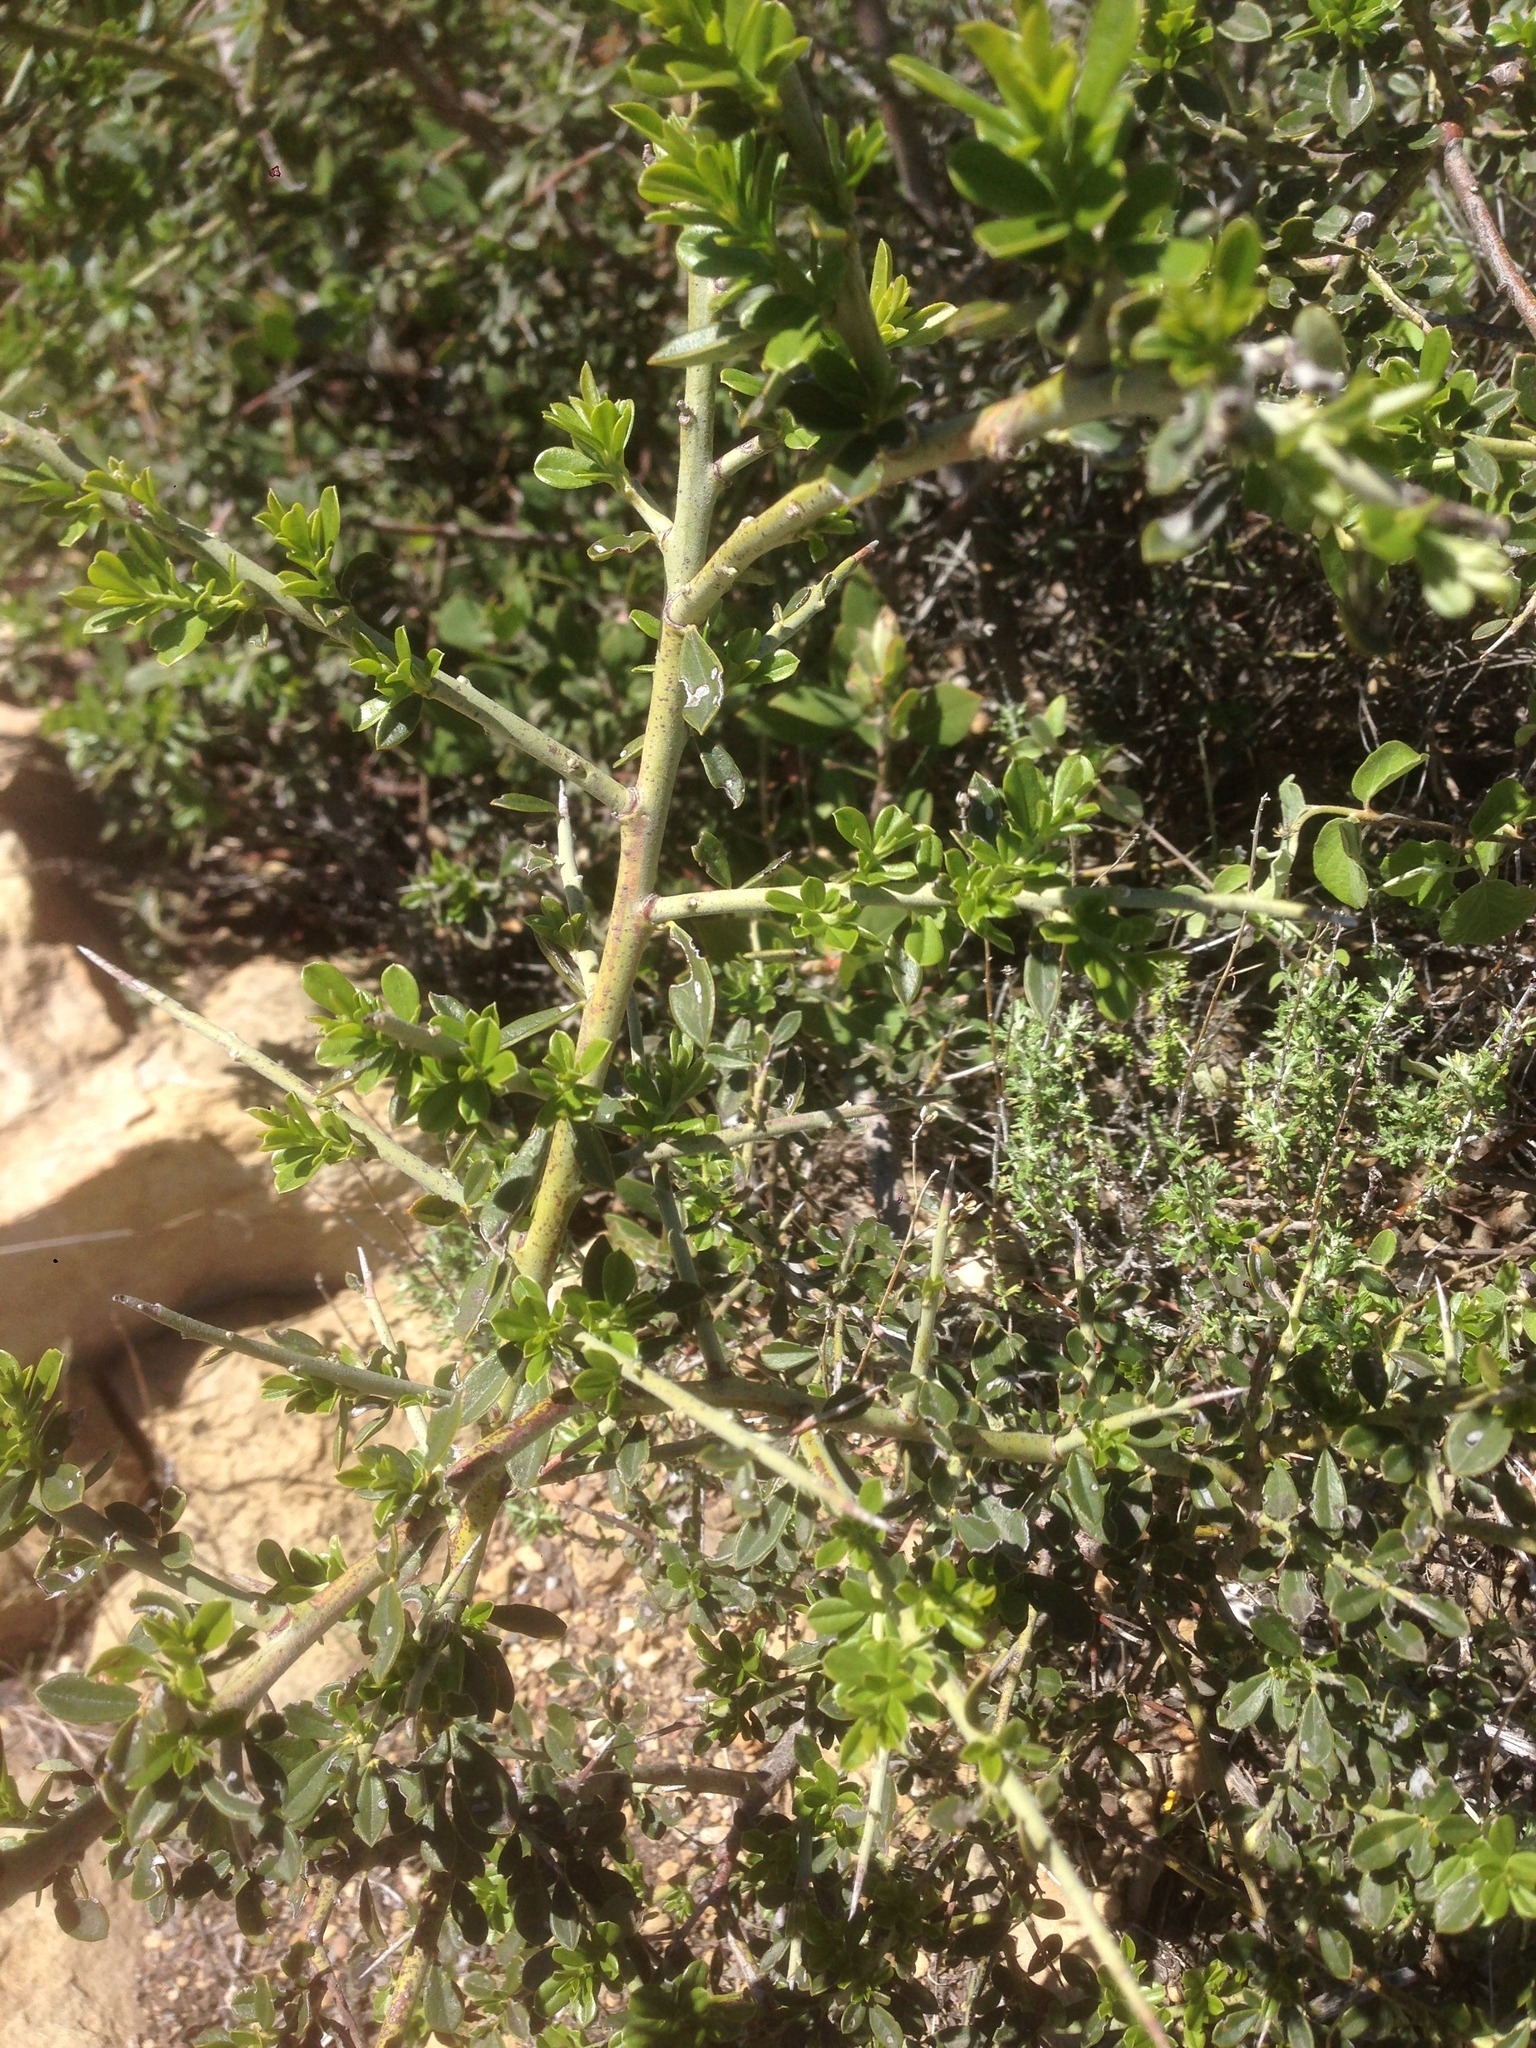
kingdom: Plantae
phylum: Tracheophyta
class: Magnoliopsida
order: Fabales
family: Fabaceae
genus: Pickeringia
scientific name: Pickeringia montana
